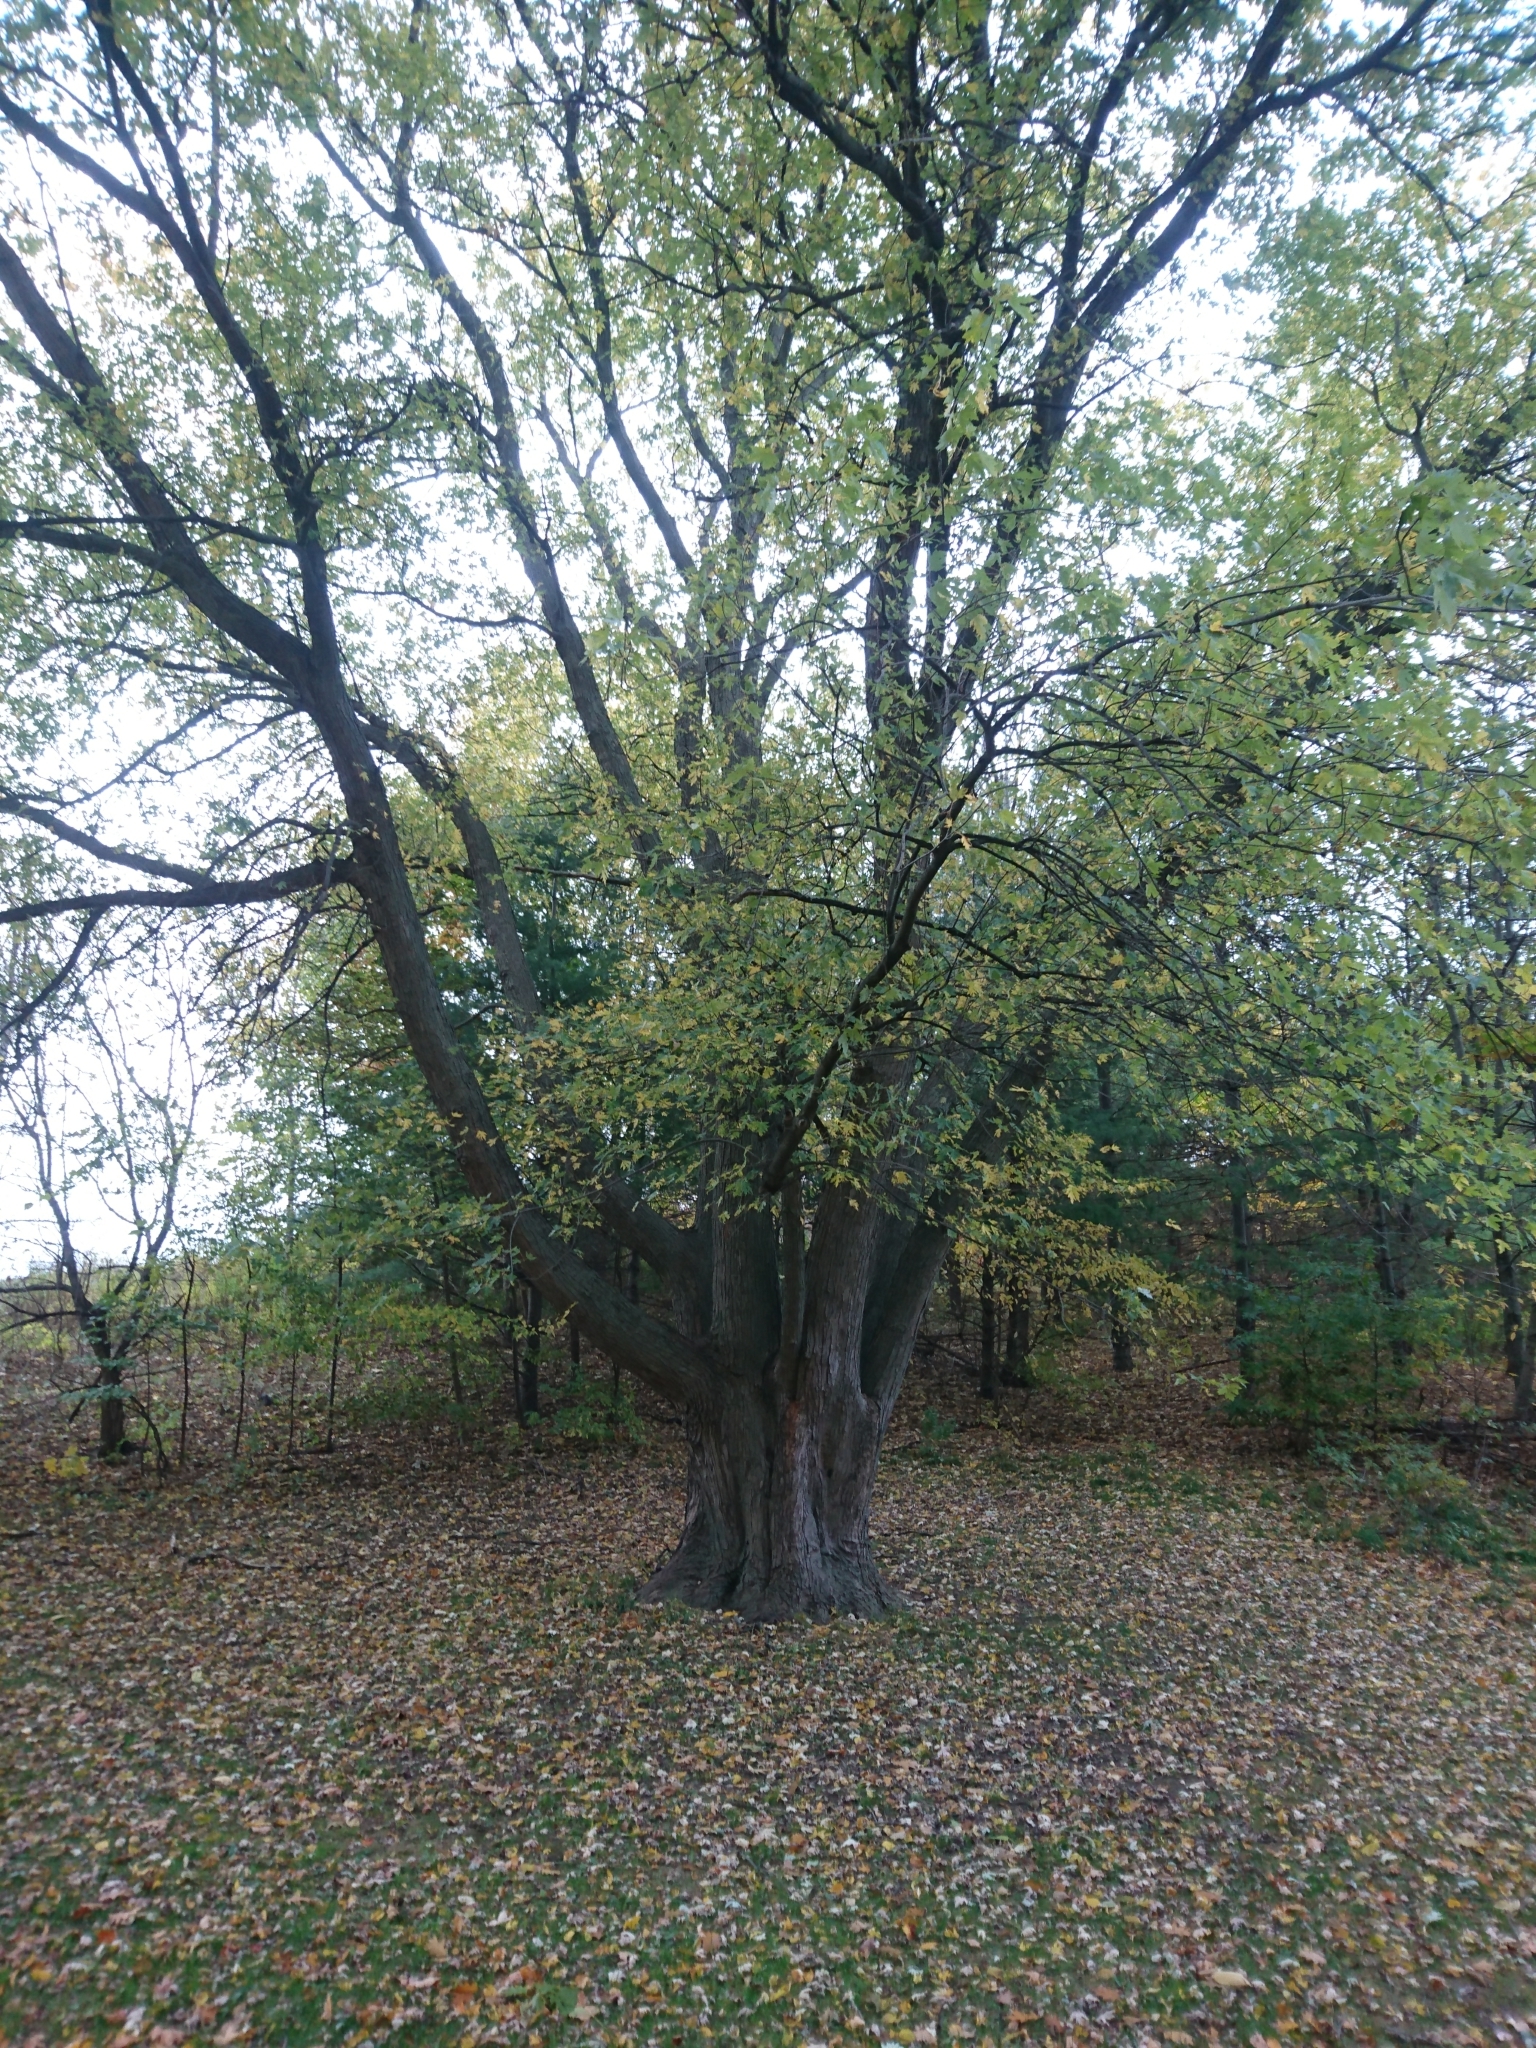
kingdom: Plantae
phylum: Tracheophyta
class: Magnoliopsida
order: Sapindales
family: Sapindaceae
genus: Acer
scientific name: Acer saccharinum
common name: Silver maple
